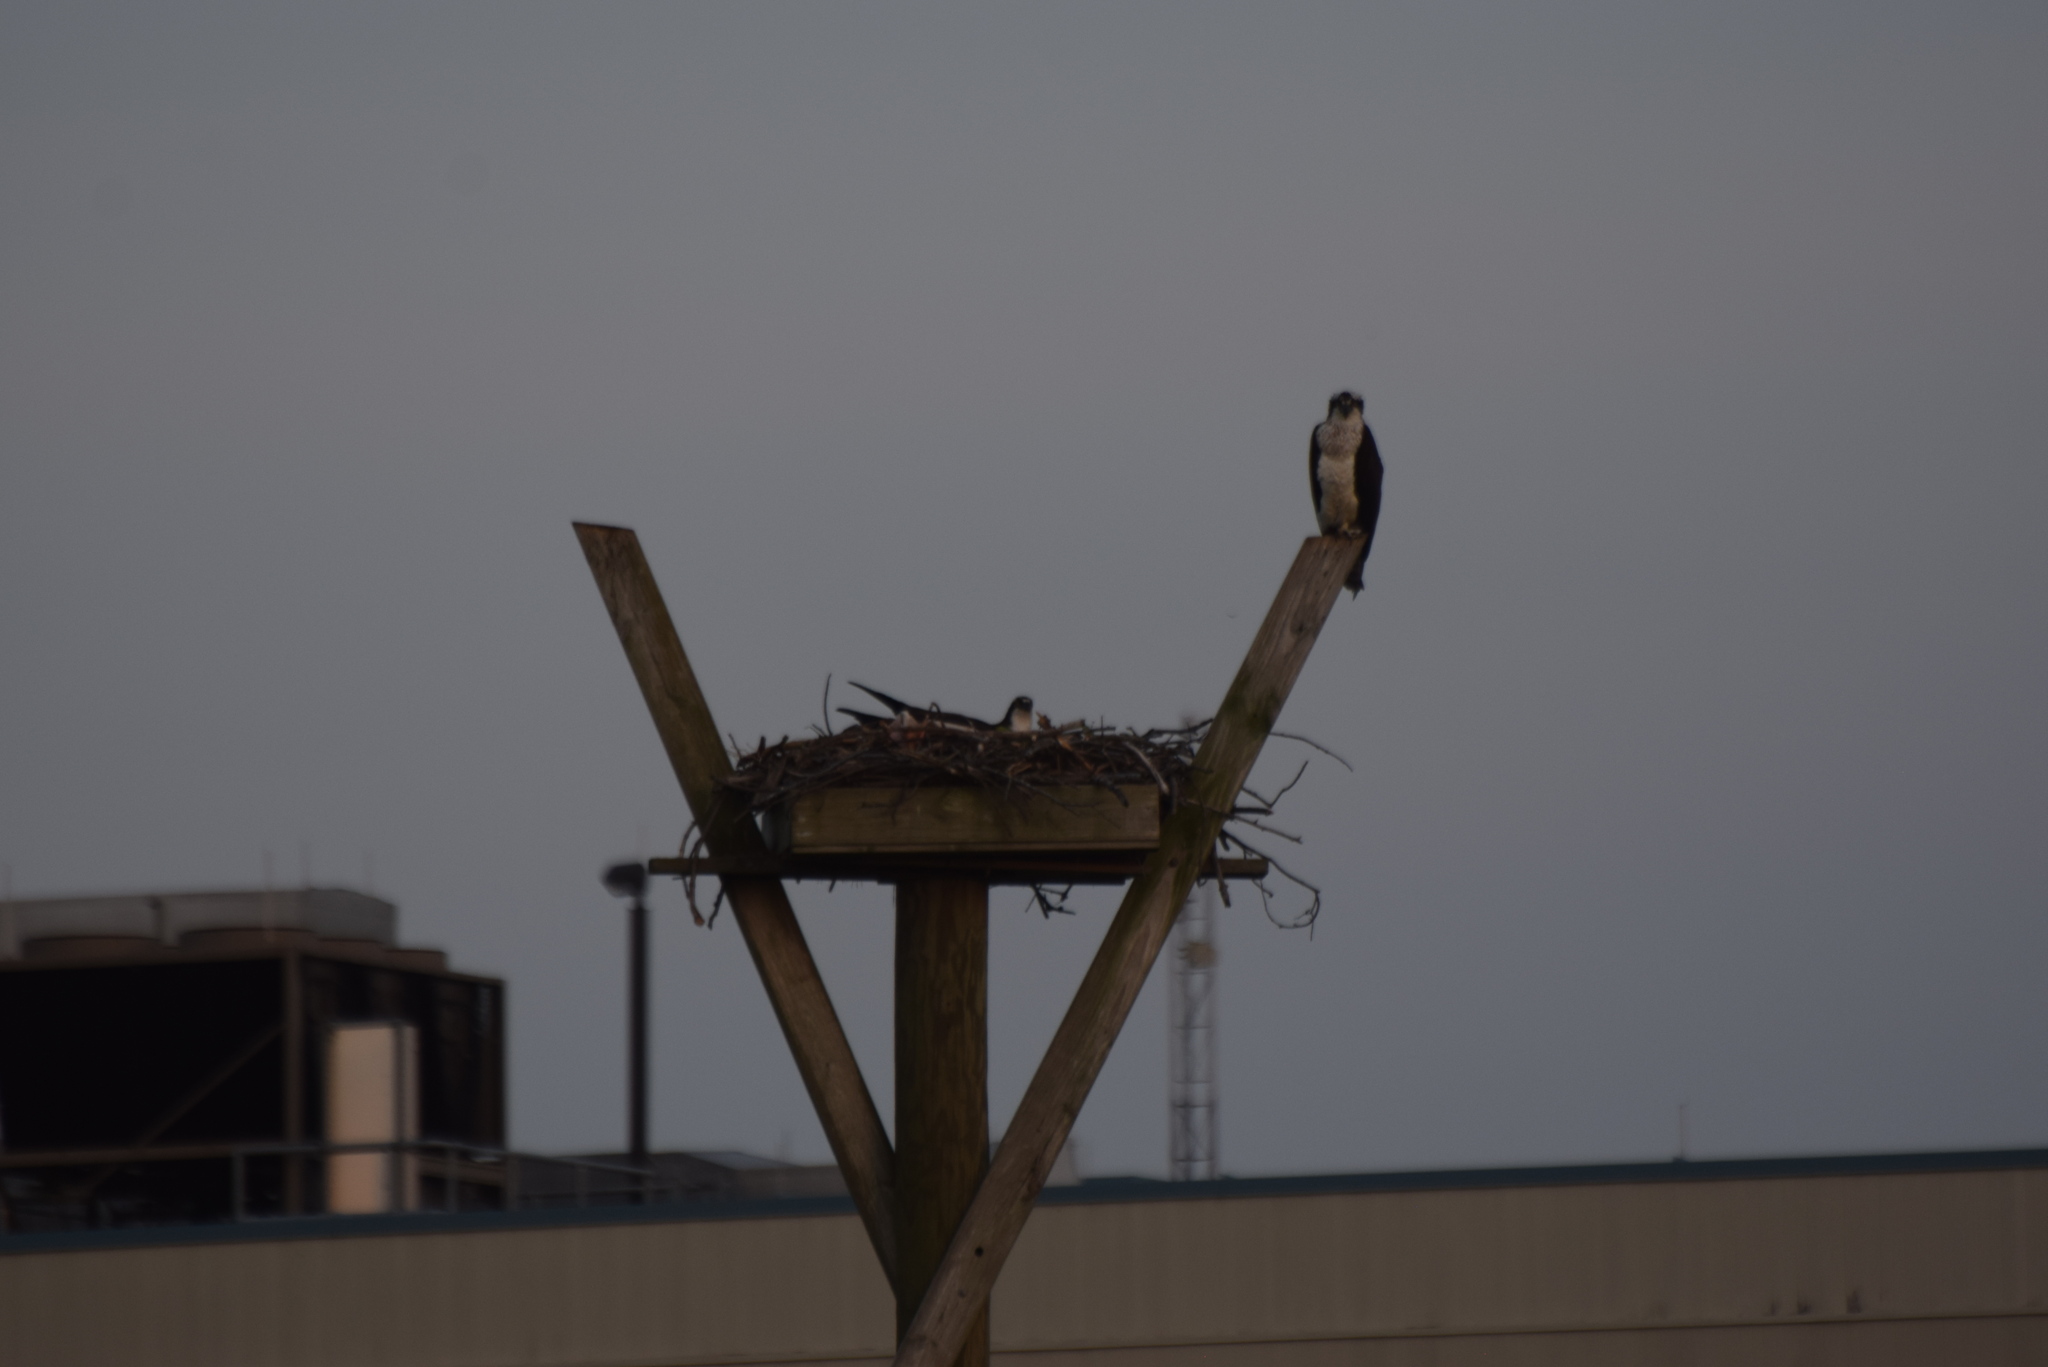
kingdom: Animalia
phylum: Chordata
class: Aves
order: Accipitriformes
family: Pandionidae
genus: Pandion
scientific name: Pandion haliaetus
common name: Osprey
